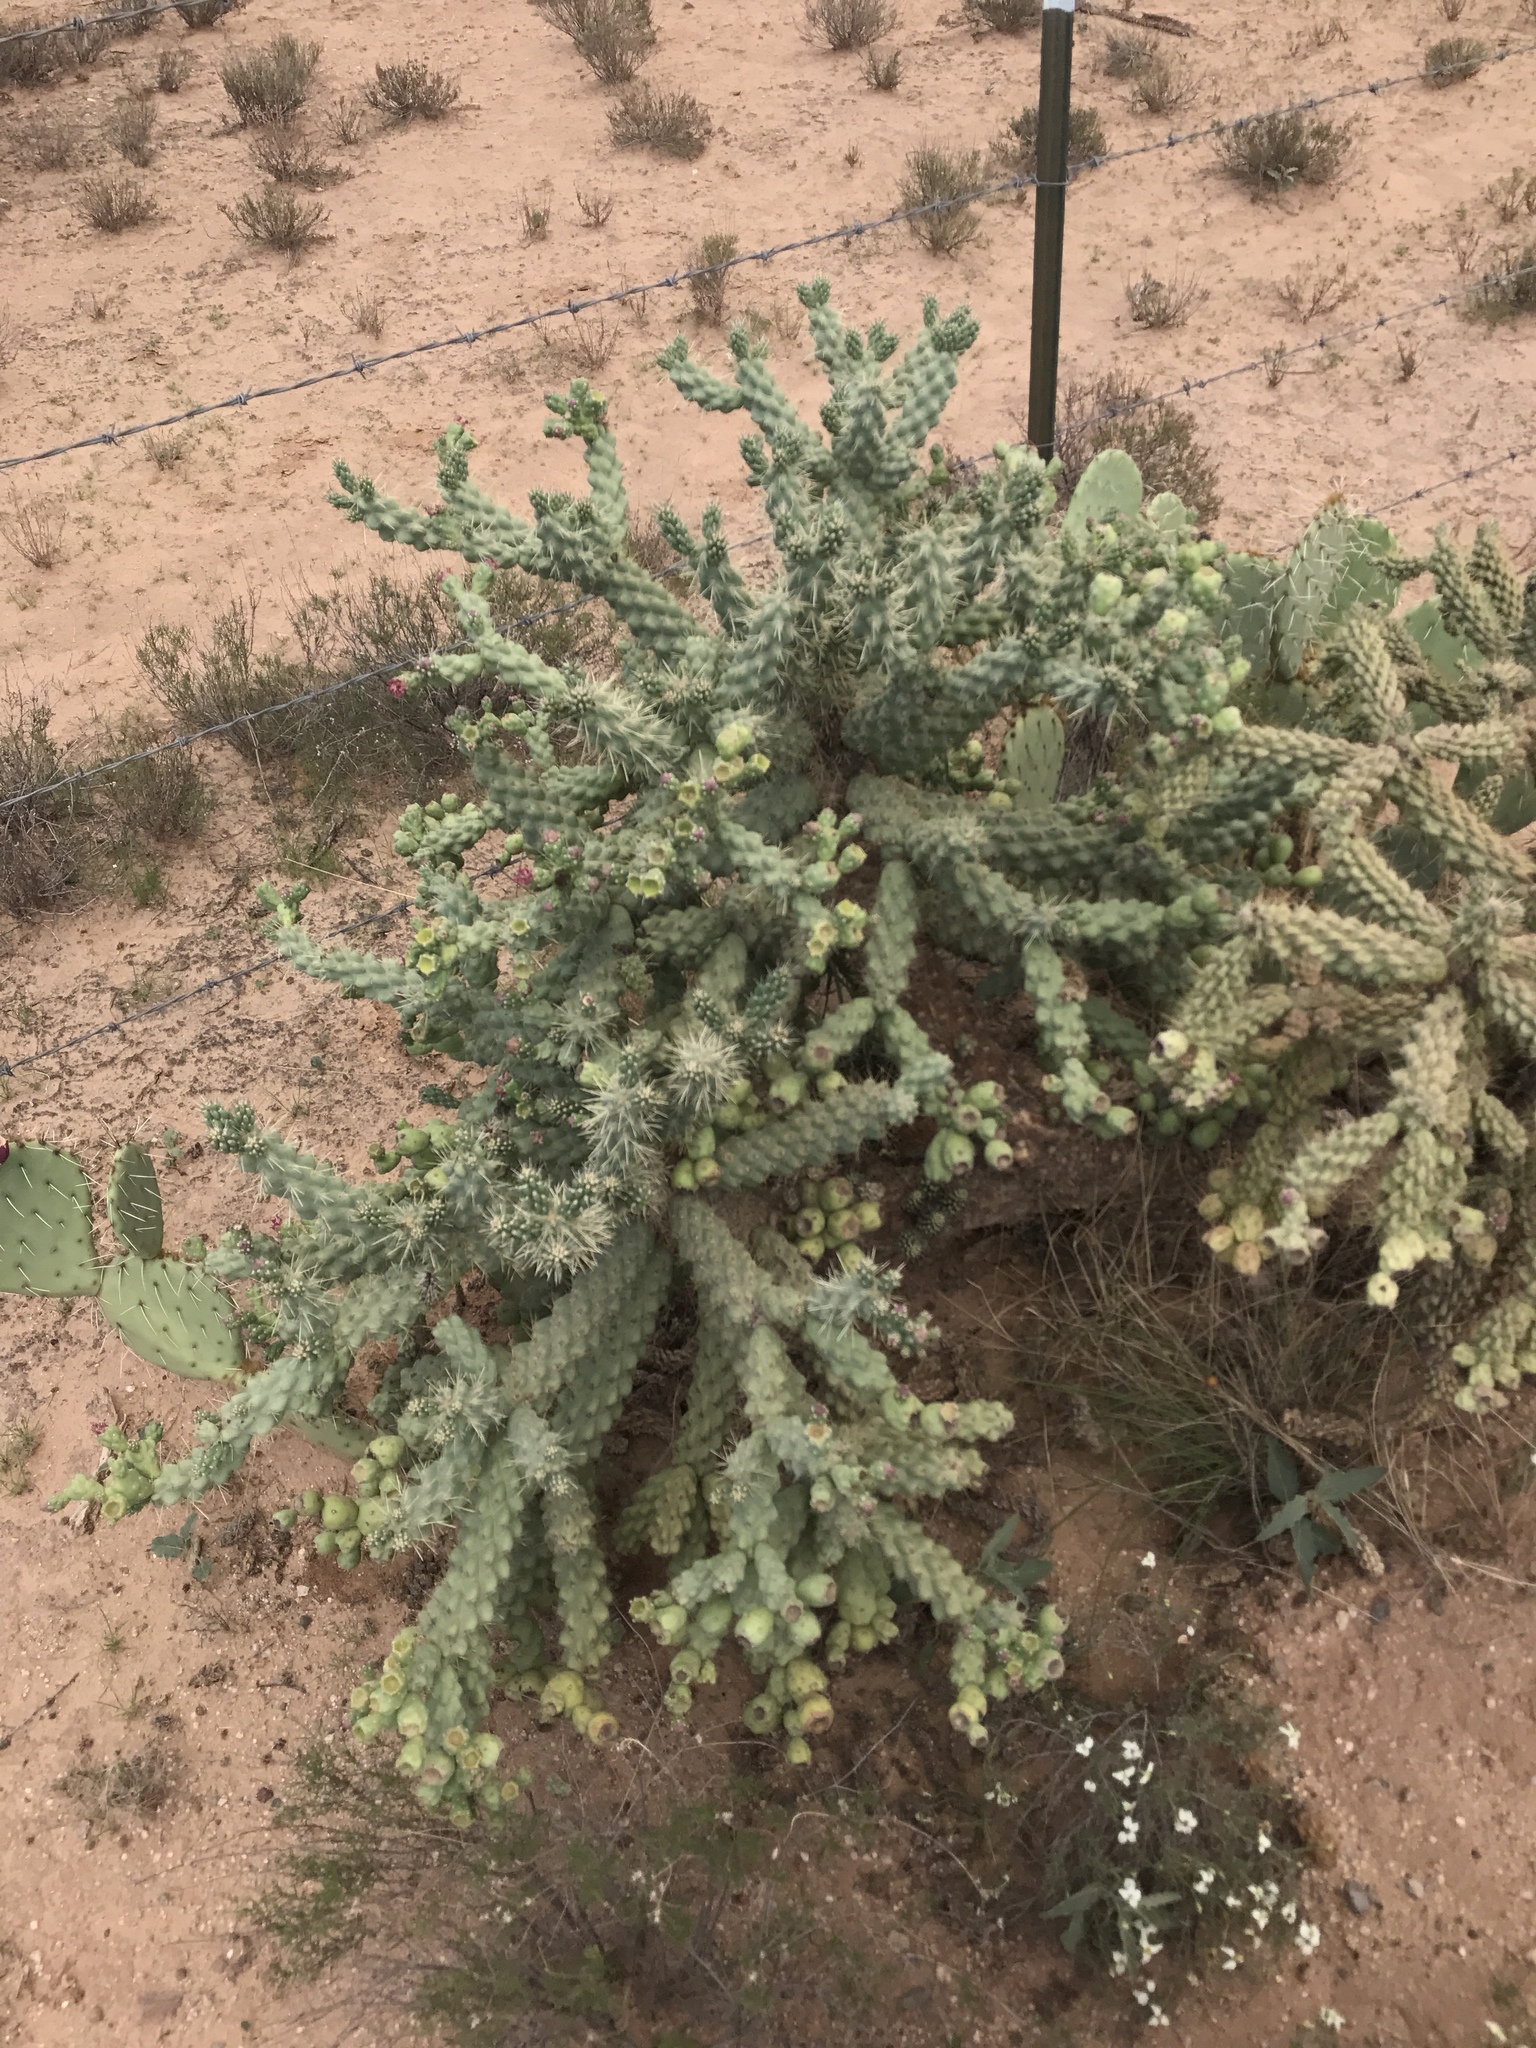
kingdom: Plantae
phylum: Tracheophyta
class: Magnoliopsida
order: Caryophyllales
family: Cactaceae
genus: Cylindropuntia
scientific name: Cylindropuntia fulgida
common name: Jumping cholla
